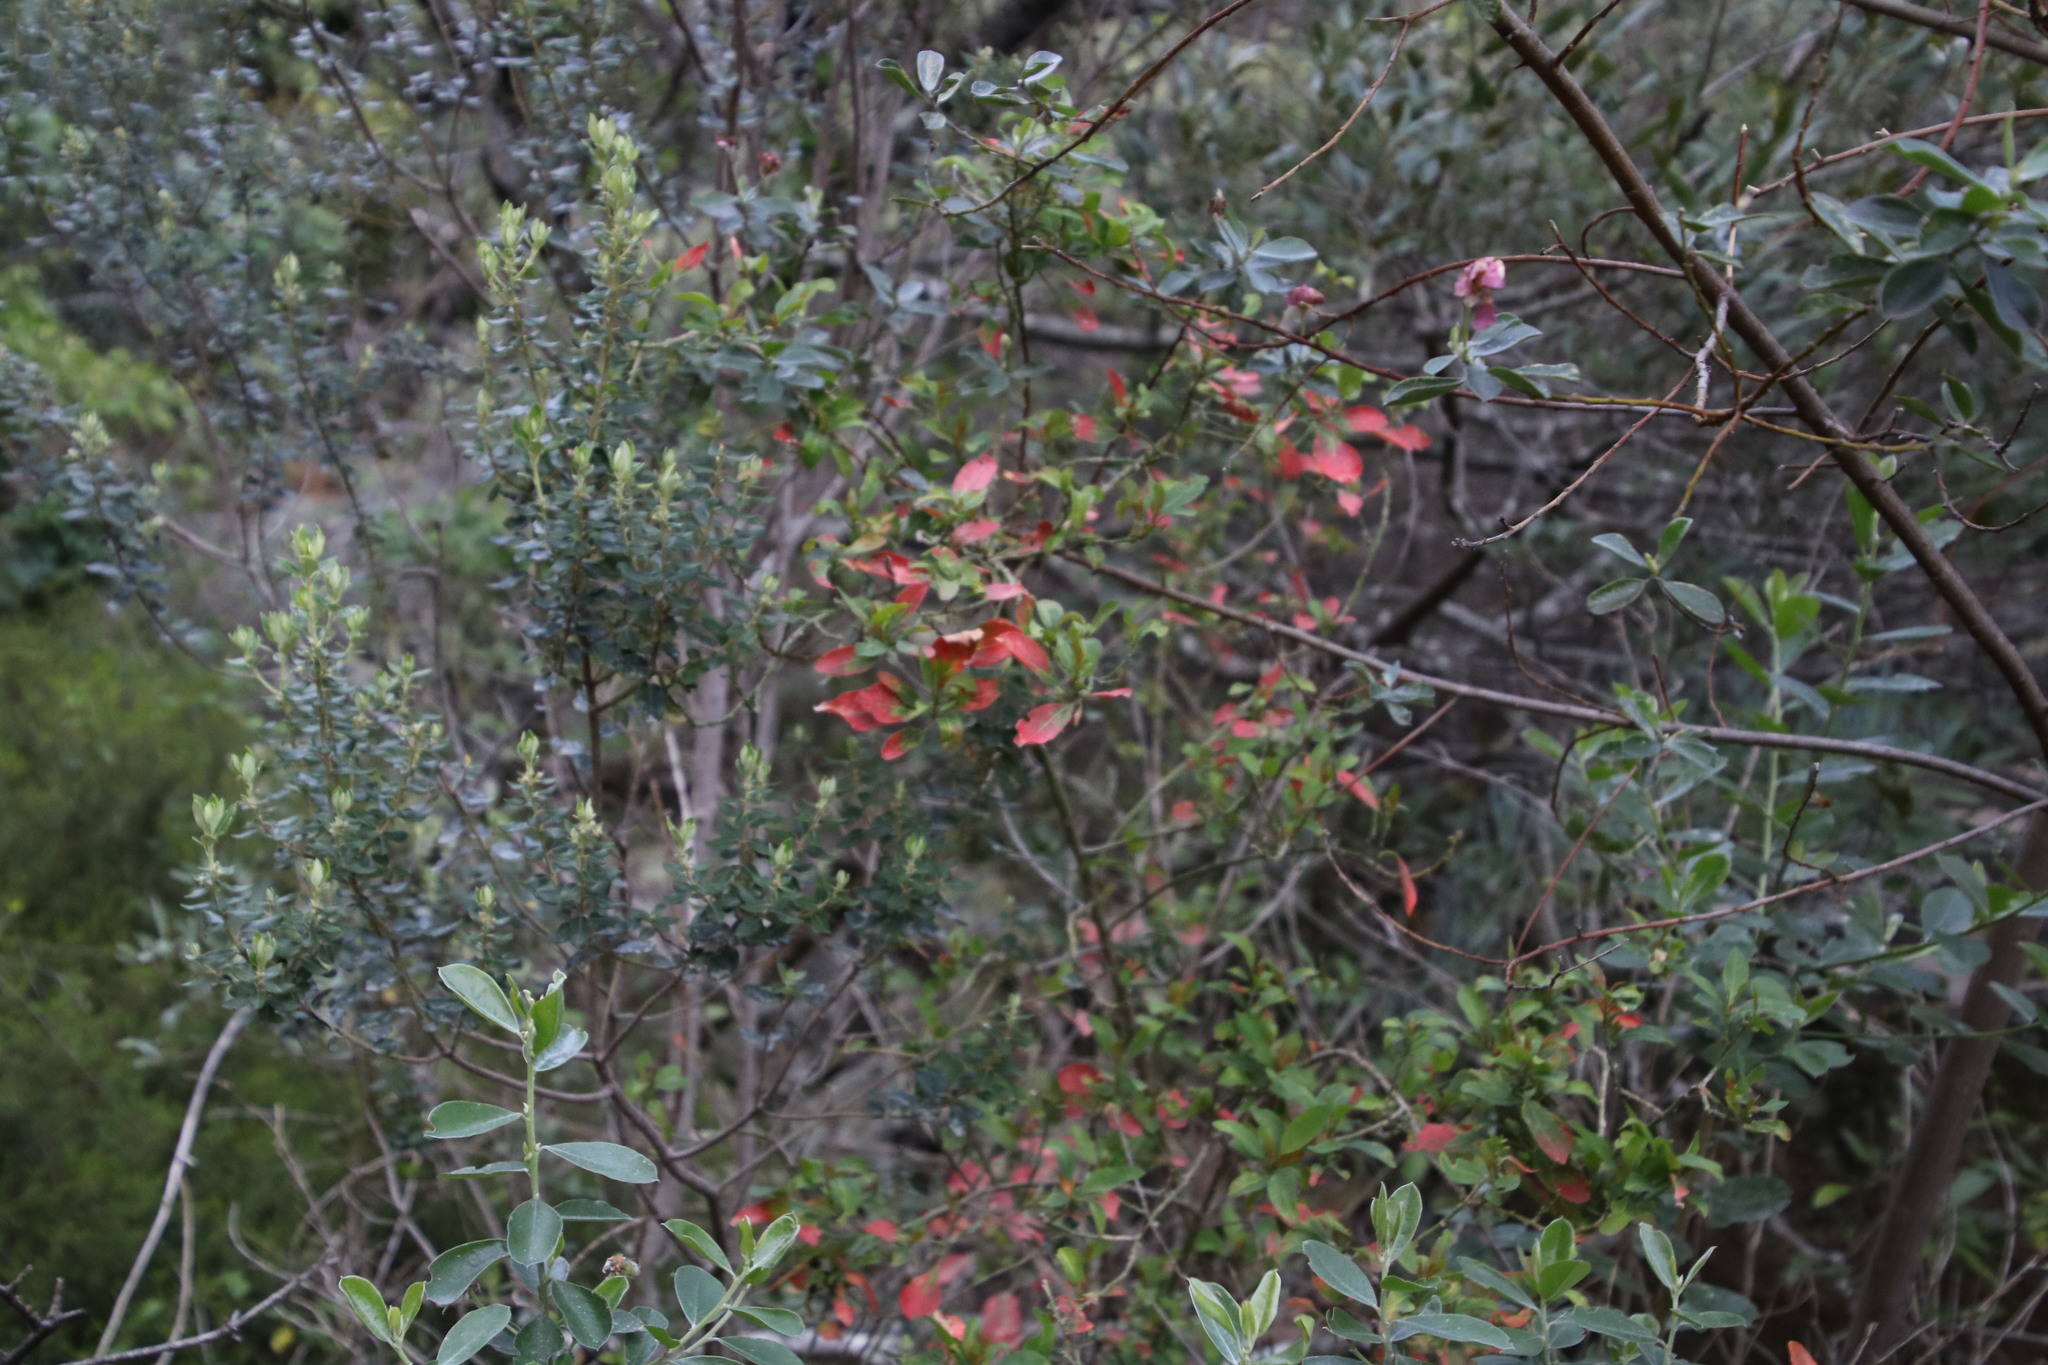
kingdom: Plantae
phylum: Tracheophyta
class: Magnoliopsida
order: Malpighiales
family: Peraceae
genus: Clutia
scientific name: Clutia pulchella
